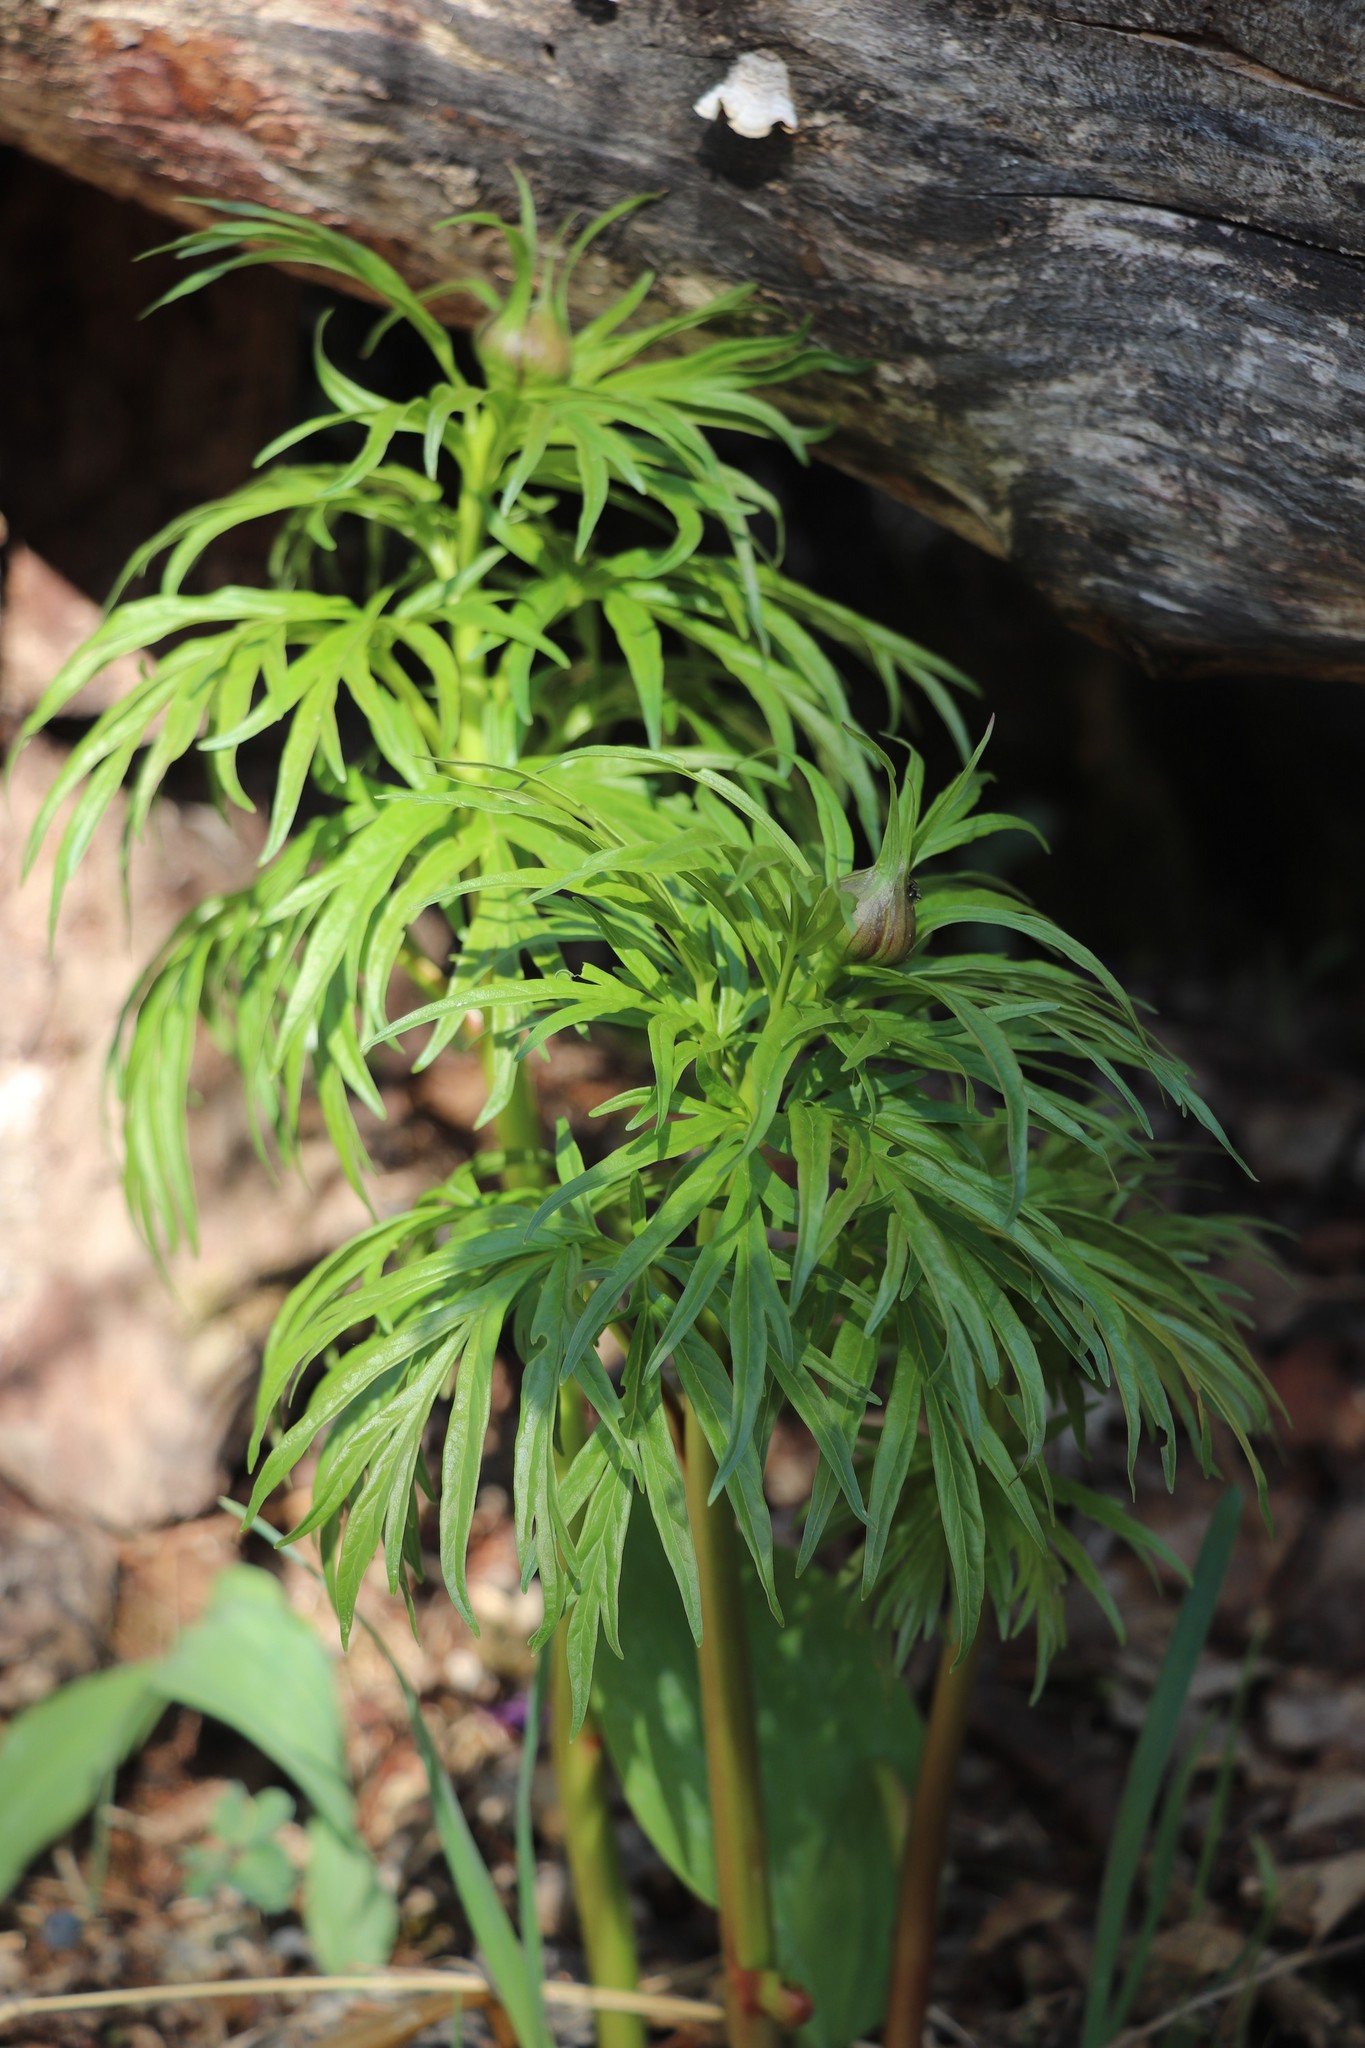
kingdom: Plantae
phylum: Tracheophyta
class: Magnoliopsida
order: Saxifragales
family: Paeoniaceae
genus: Paeonia
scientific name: Paeonia anomala
